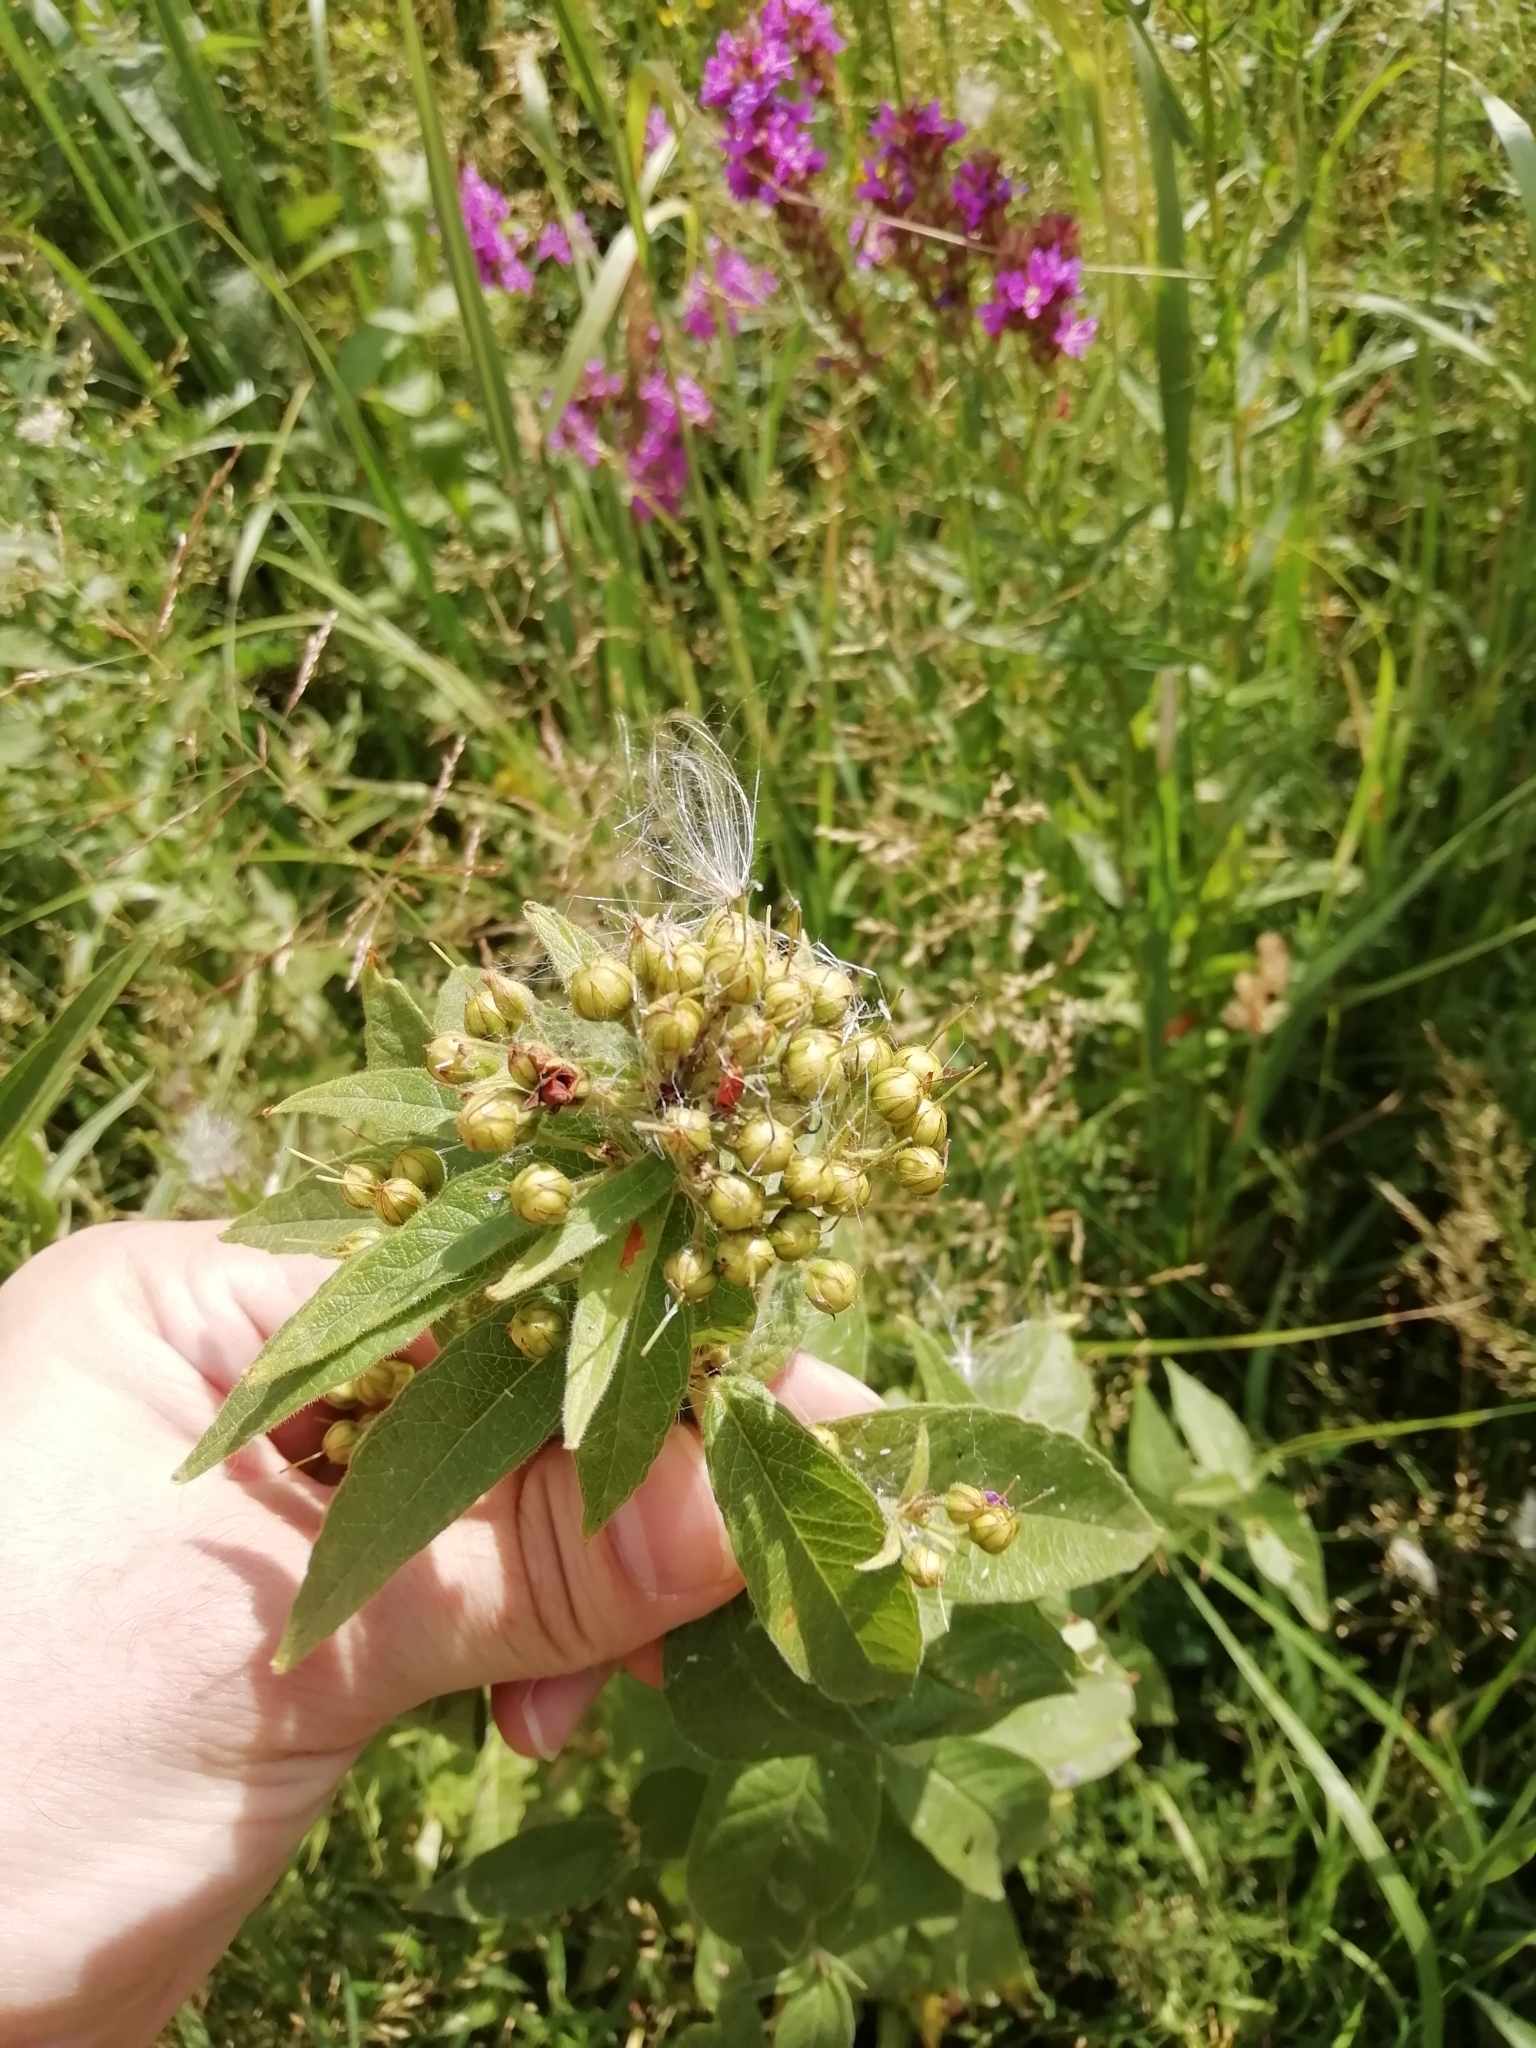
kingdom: Plantae
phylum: Tracheophyta
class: Magnoliopsida
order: Ericales
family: Primulaceae
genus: Lysimachia
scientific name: Lysimachia vulgaris
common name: Yellow loosestrife
